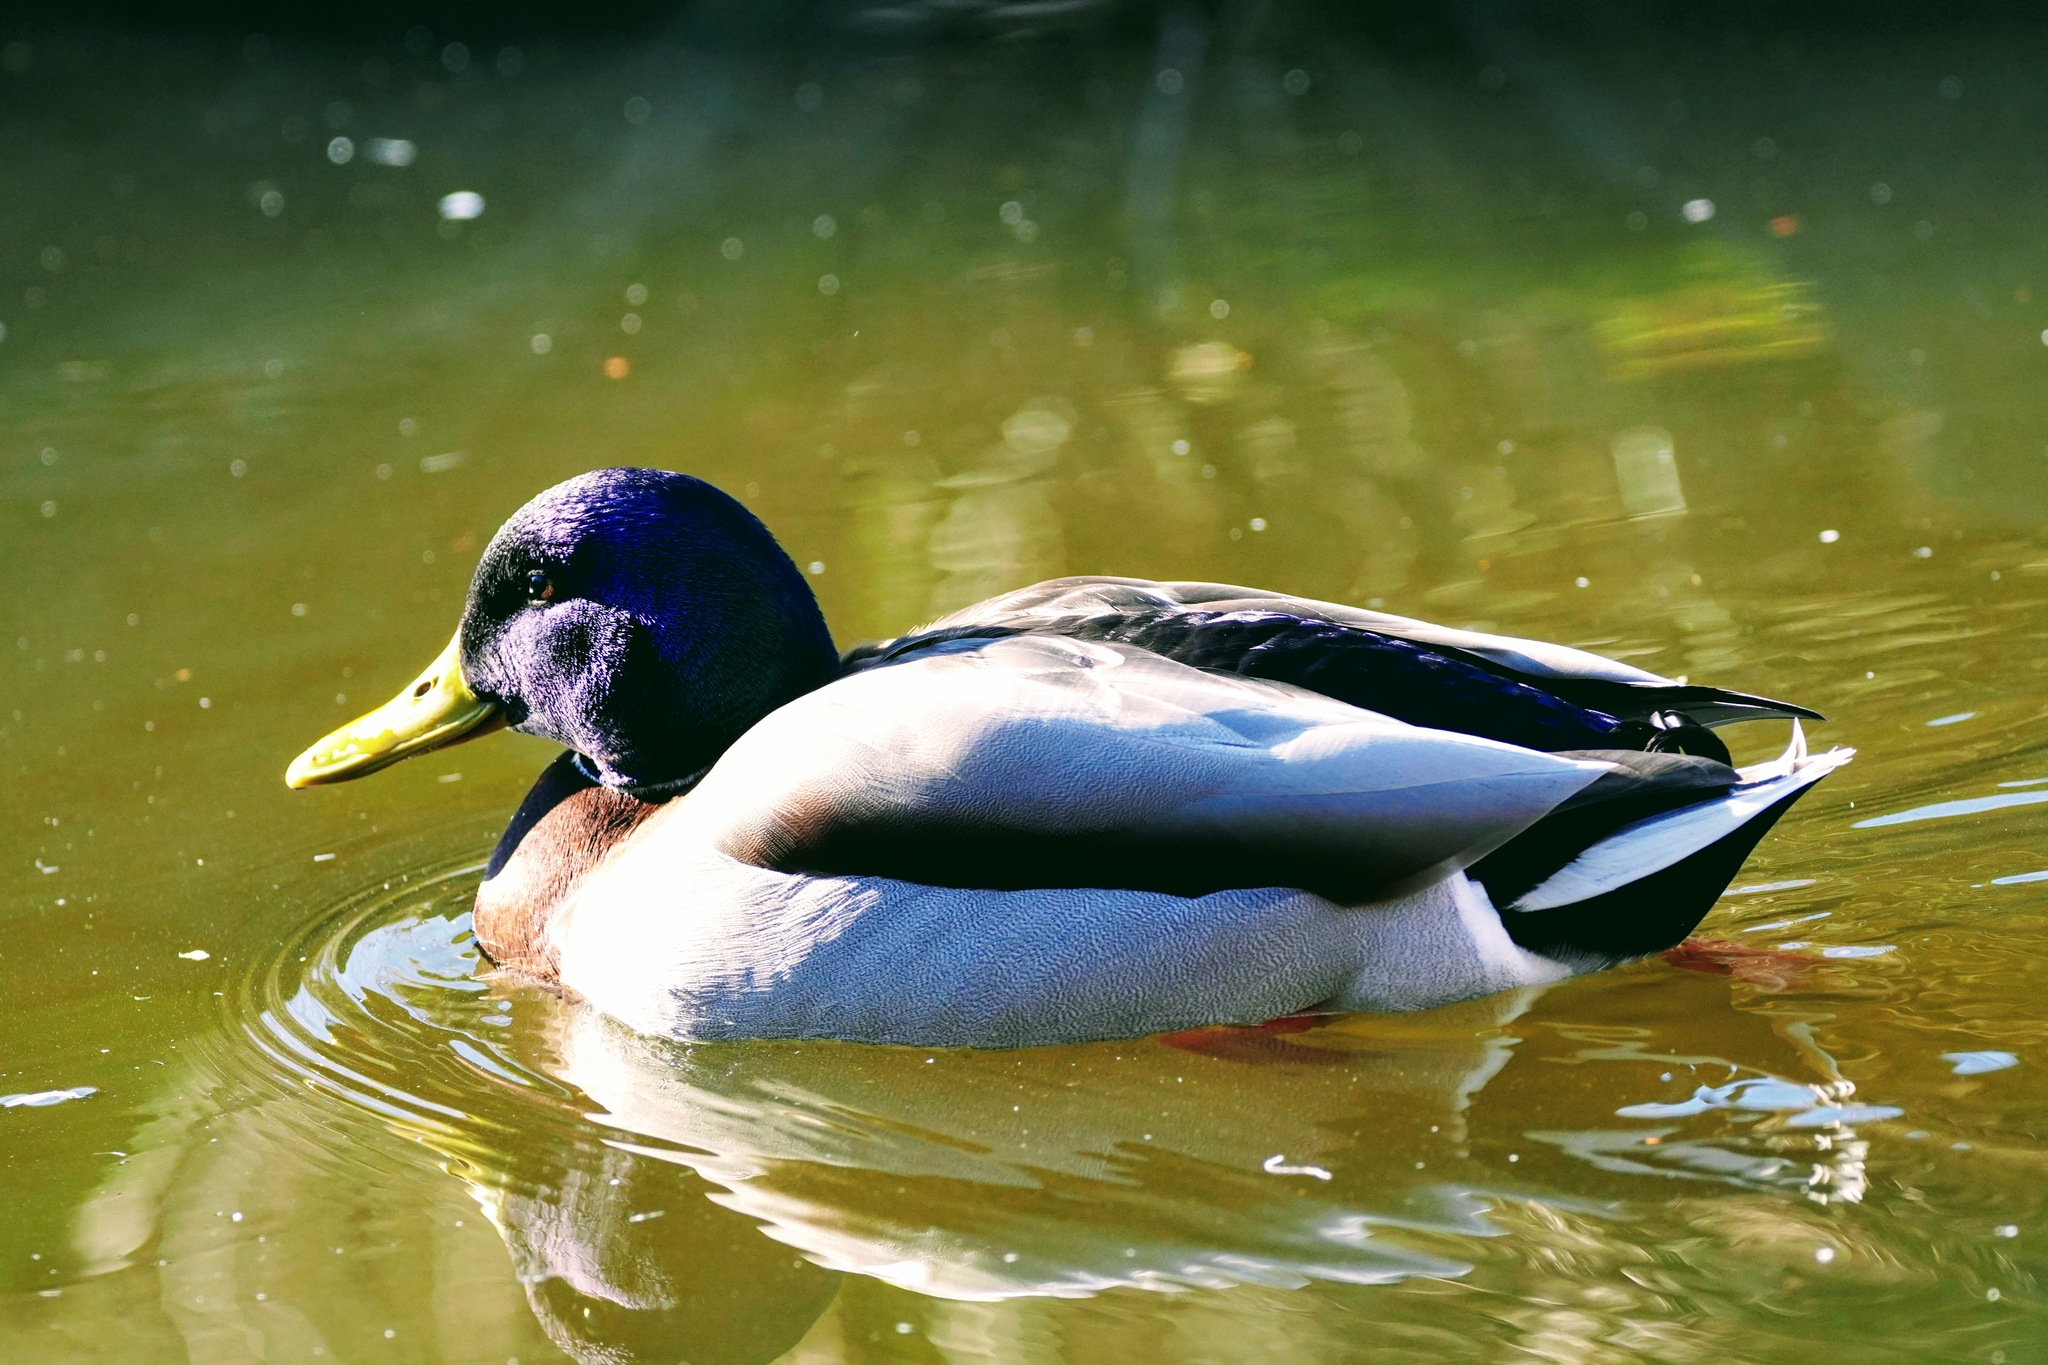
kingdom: Animalia
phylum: Chordata
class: Aves
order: Anseriformes
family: Anatidae
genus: Anas
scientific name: Anas platyrhynchos
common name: Mallard
